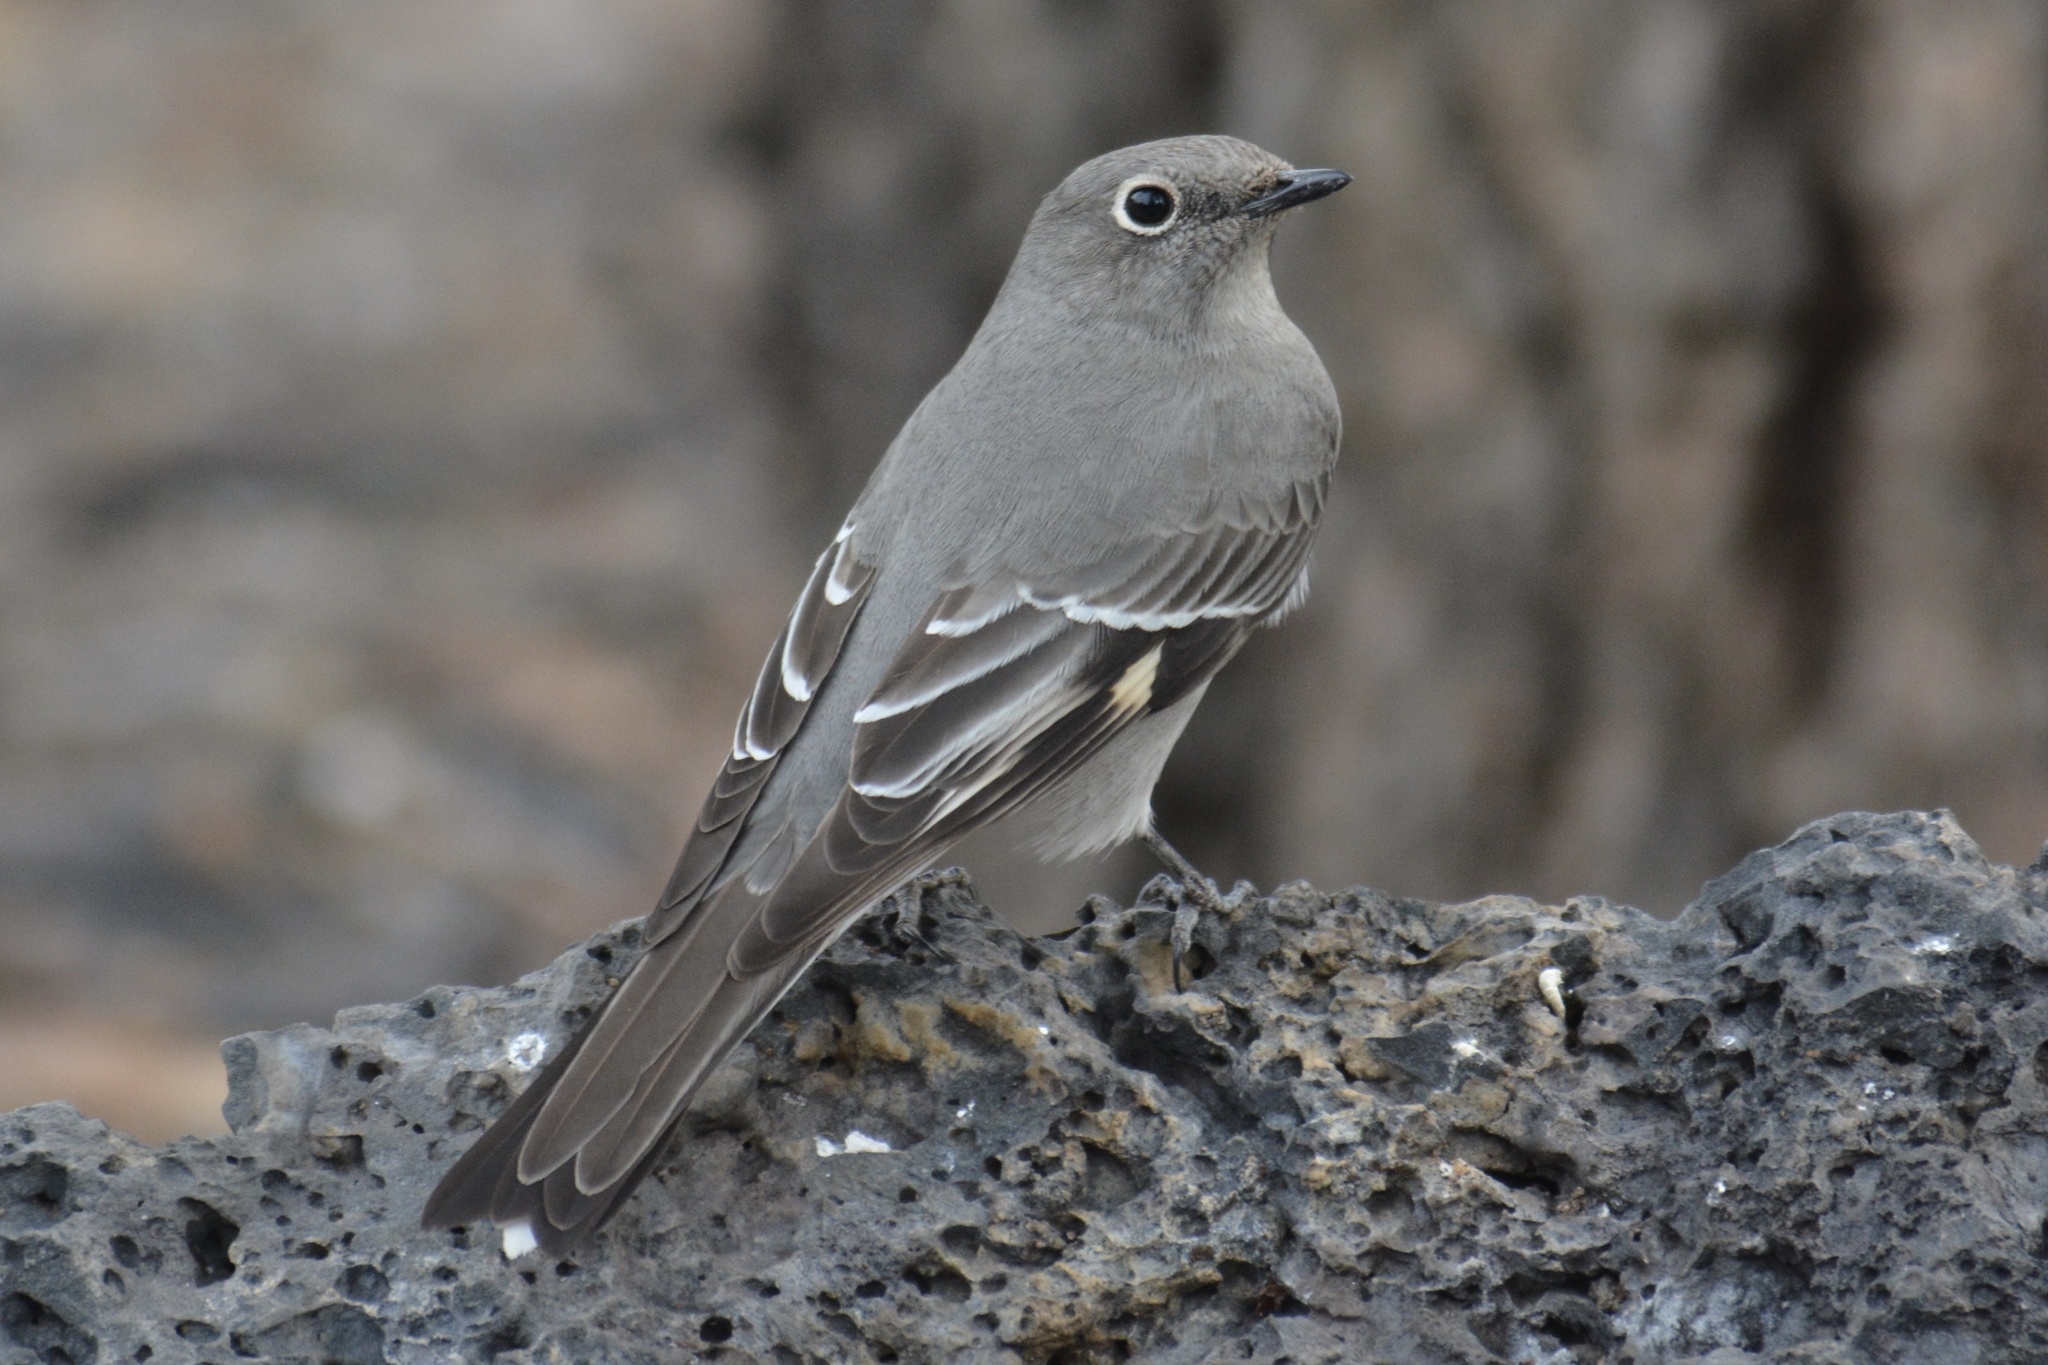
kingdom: Animalia
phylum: Chordata
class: Aves
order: Passeriformes
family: Turdidae
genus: Myadestes
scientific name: Myadestes townsendi
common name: Townsend's solitaire
